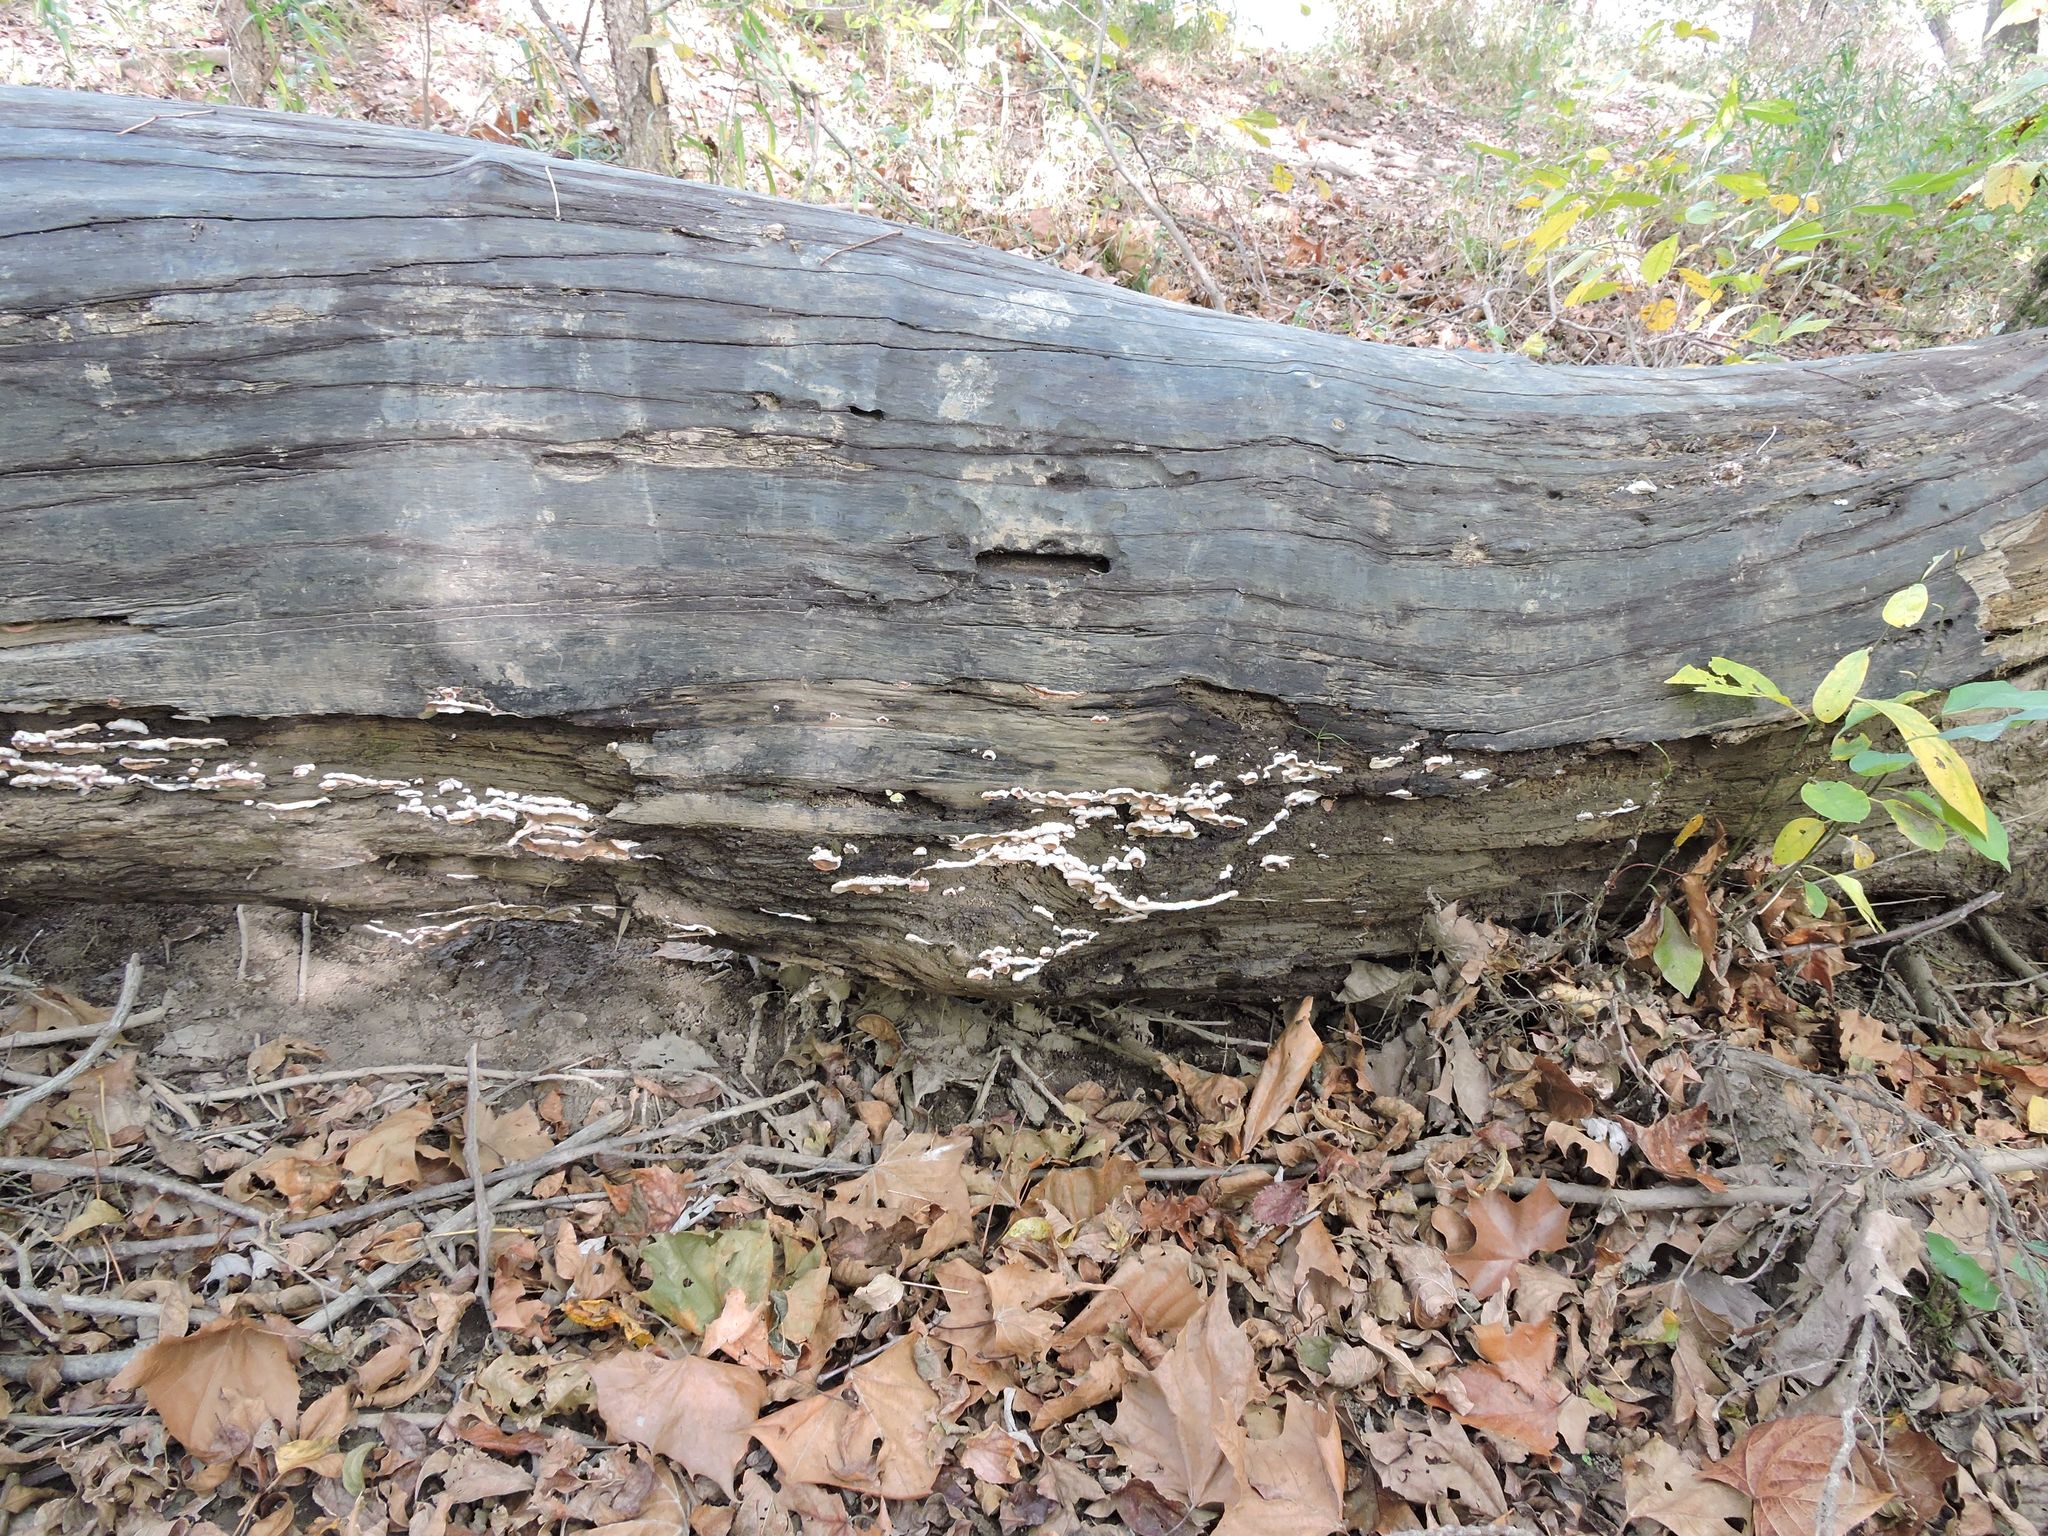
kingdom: Fungi
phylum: Basidiomycota
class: Agaricomycetes
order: Polyporales
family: Meruliaceae
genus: Phlebia
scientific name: Phlebia tremellosa
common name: Jelly rot
